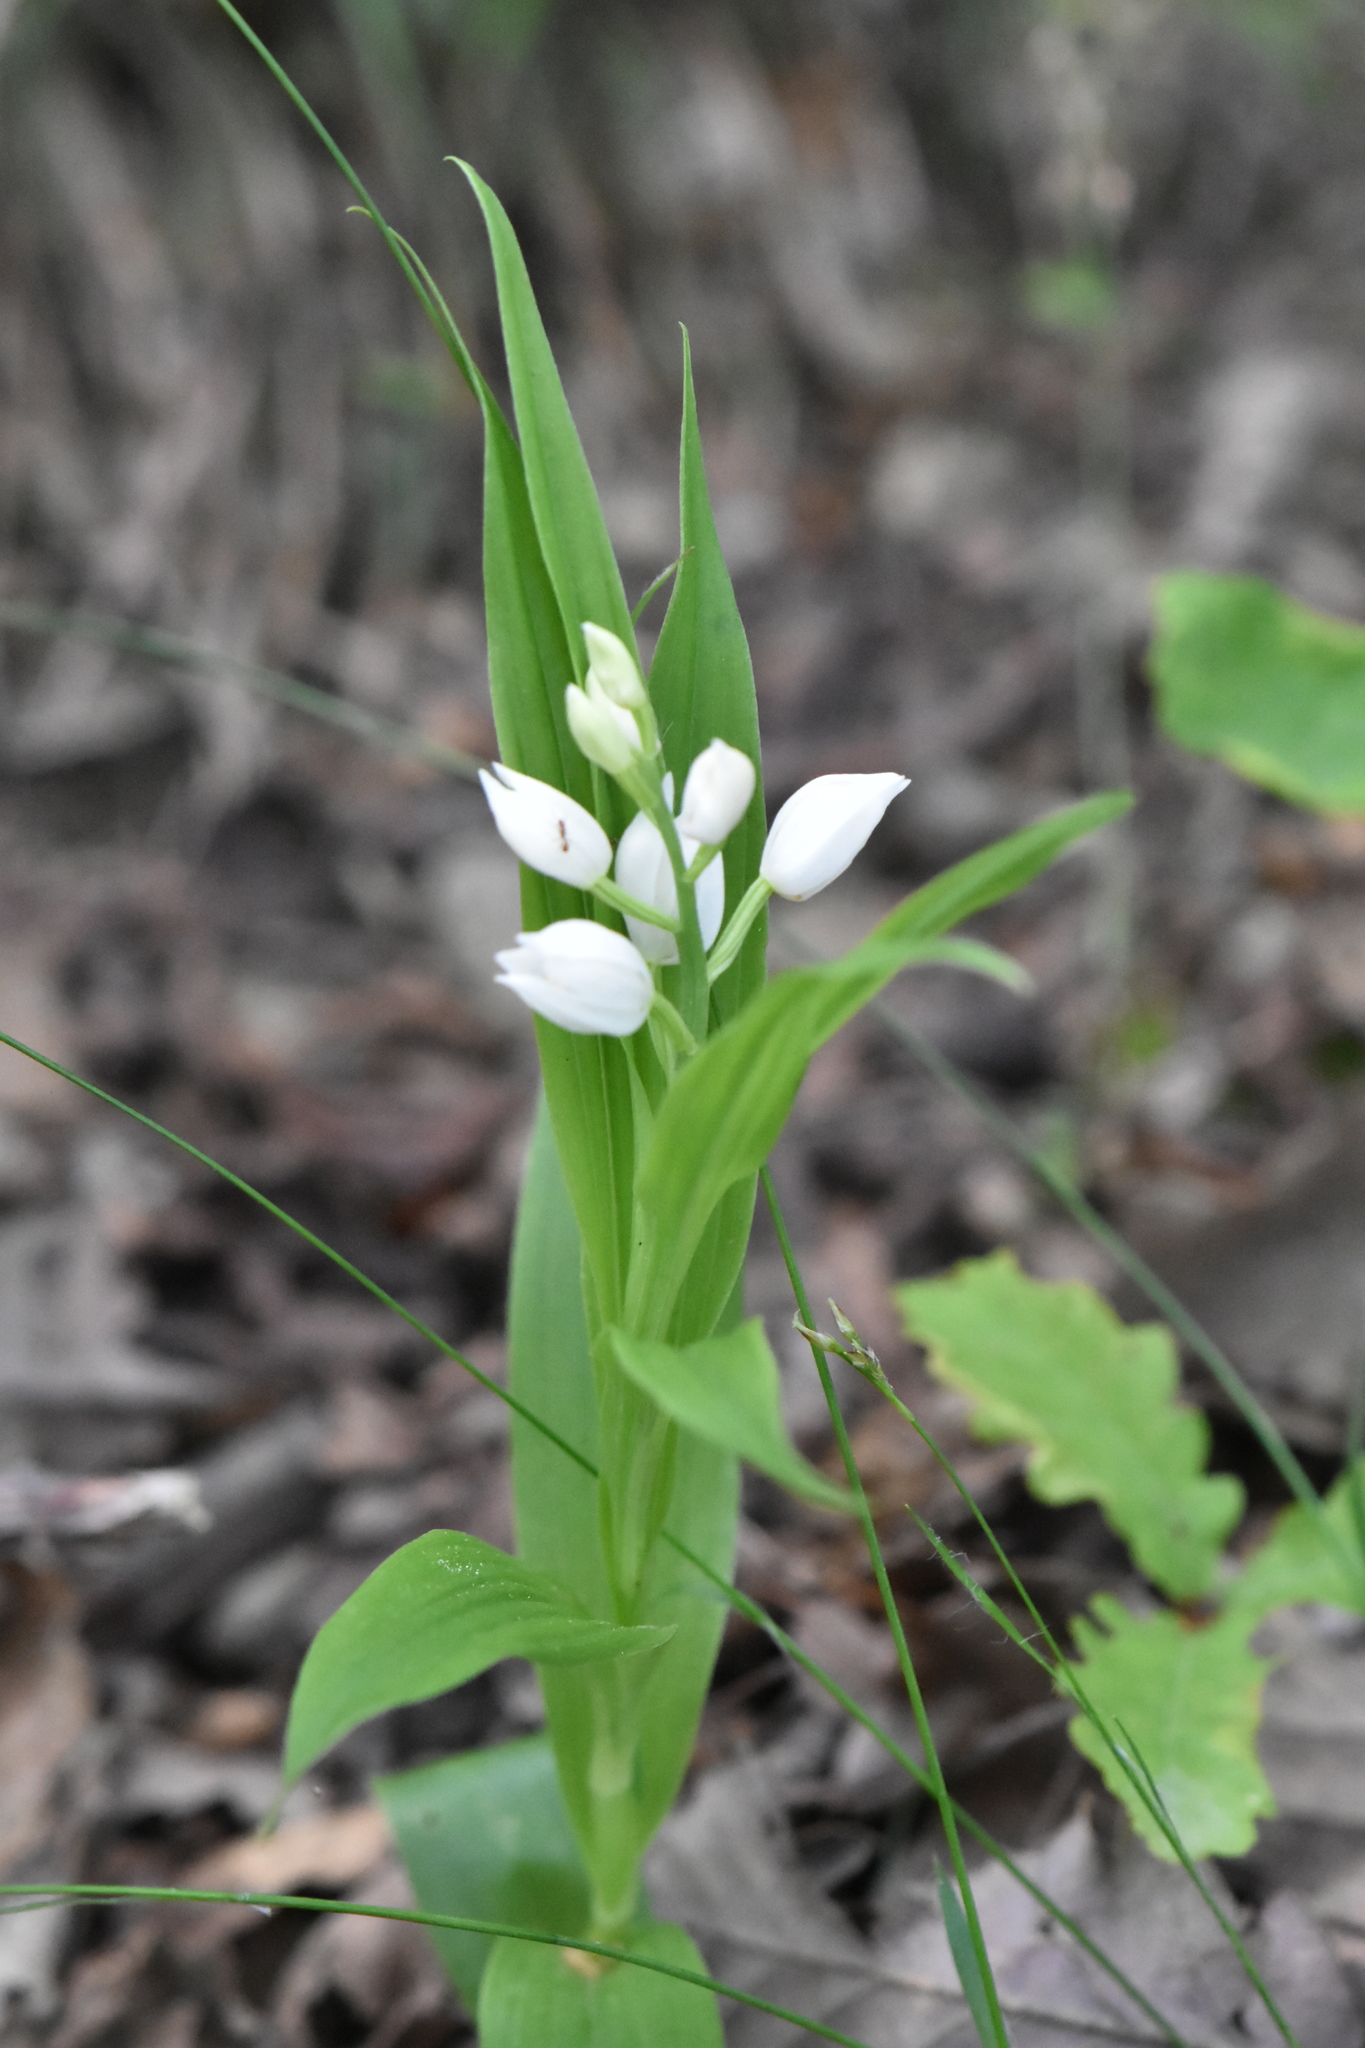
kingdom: Plantae
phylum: Tracheophyta
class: Liliopsida
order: Asparagales
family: Orchidaceae
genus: Cephalanthera
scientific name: Cephalanthera longifolia
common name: Narrow-leaved helleborine
